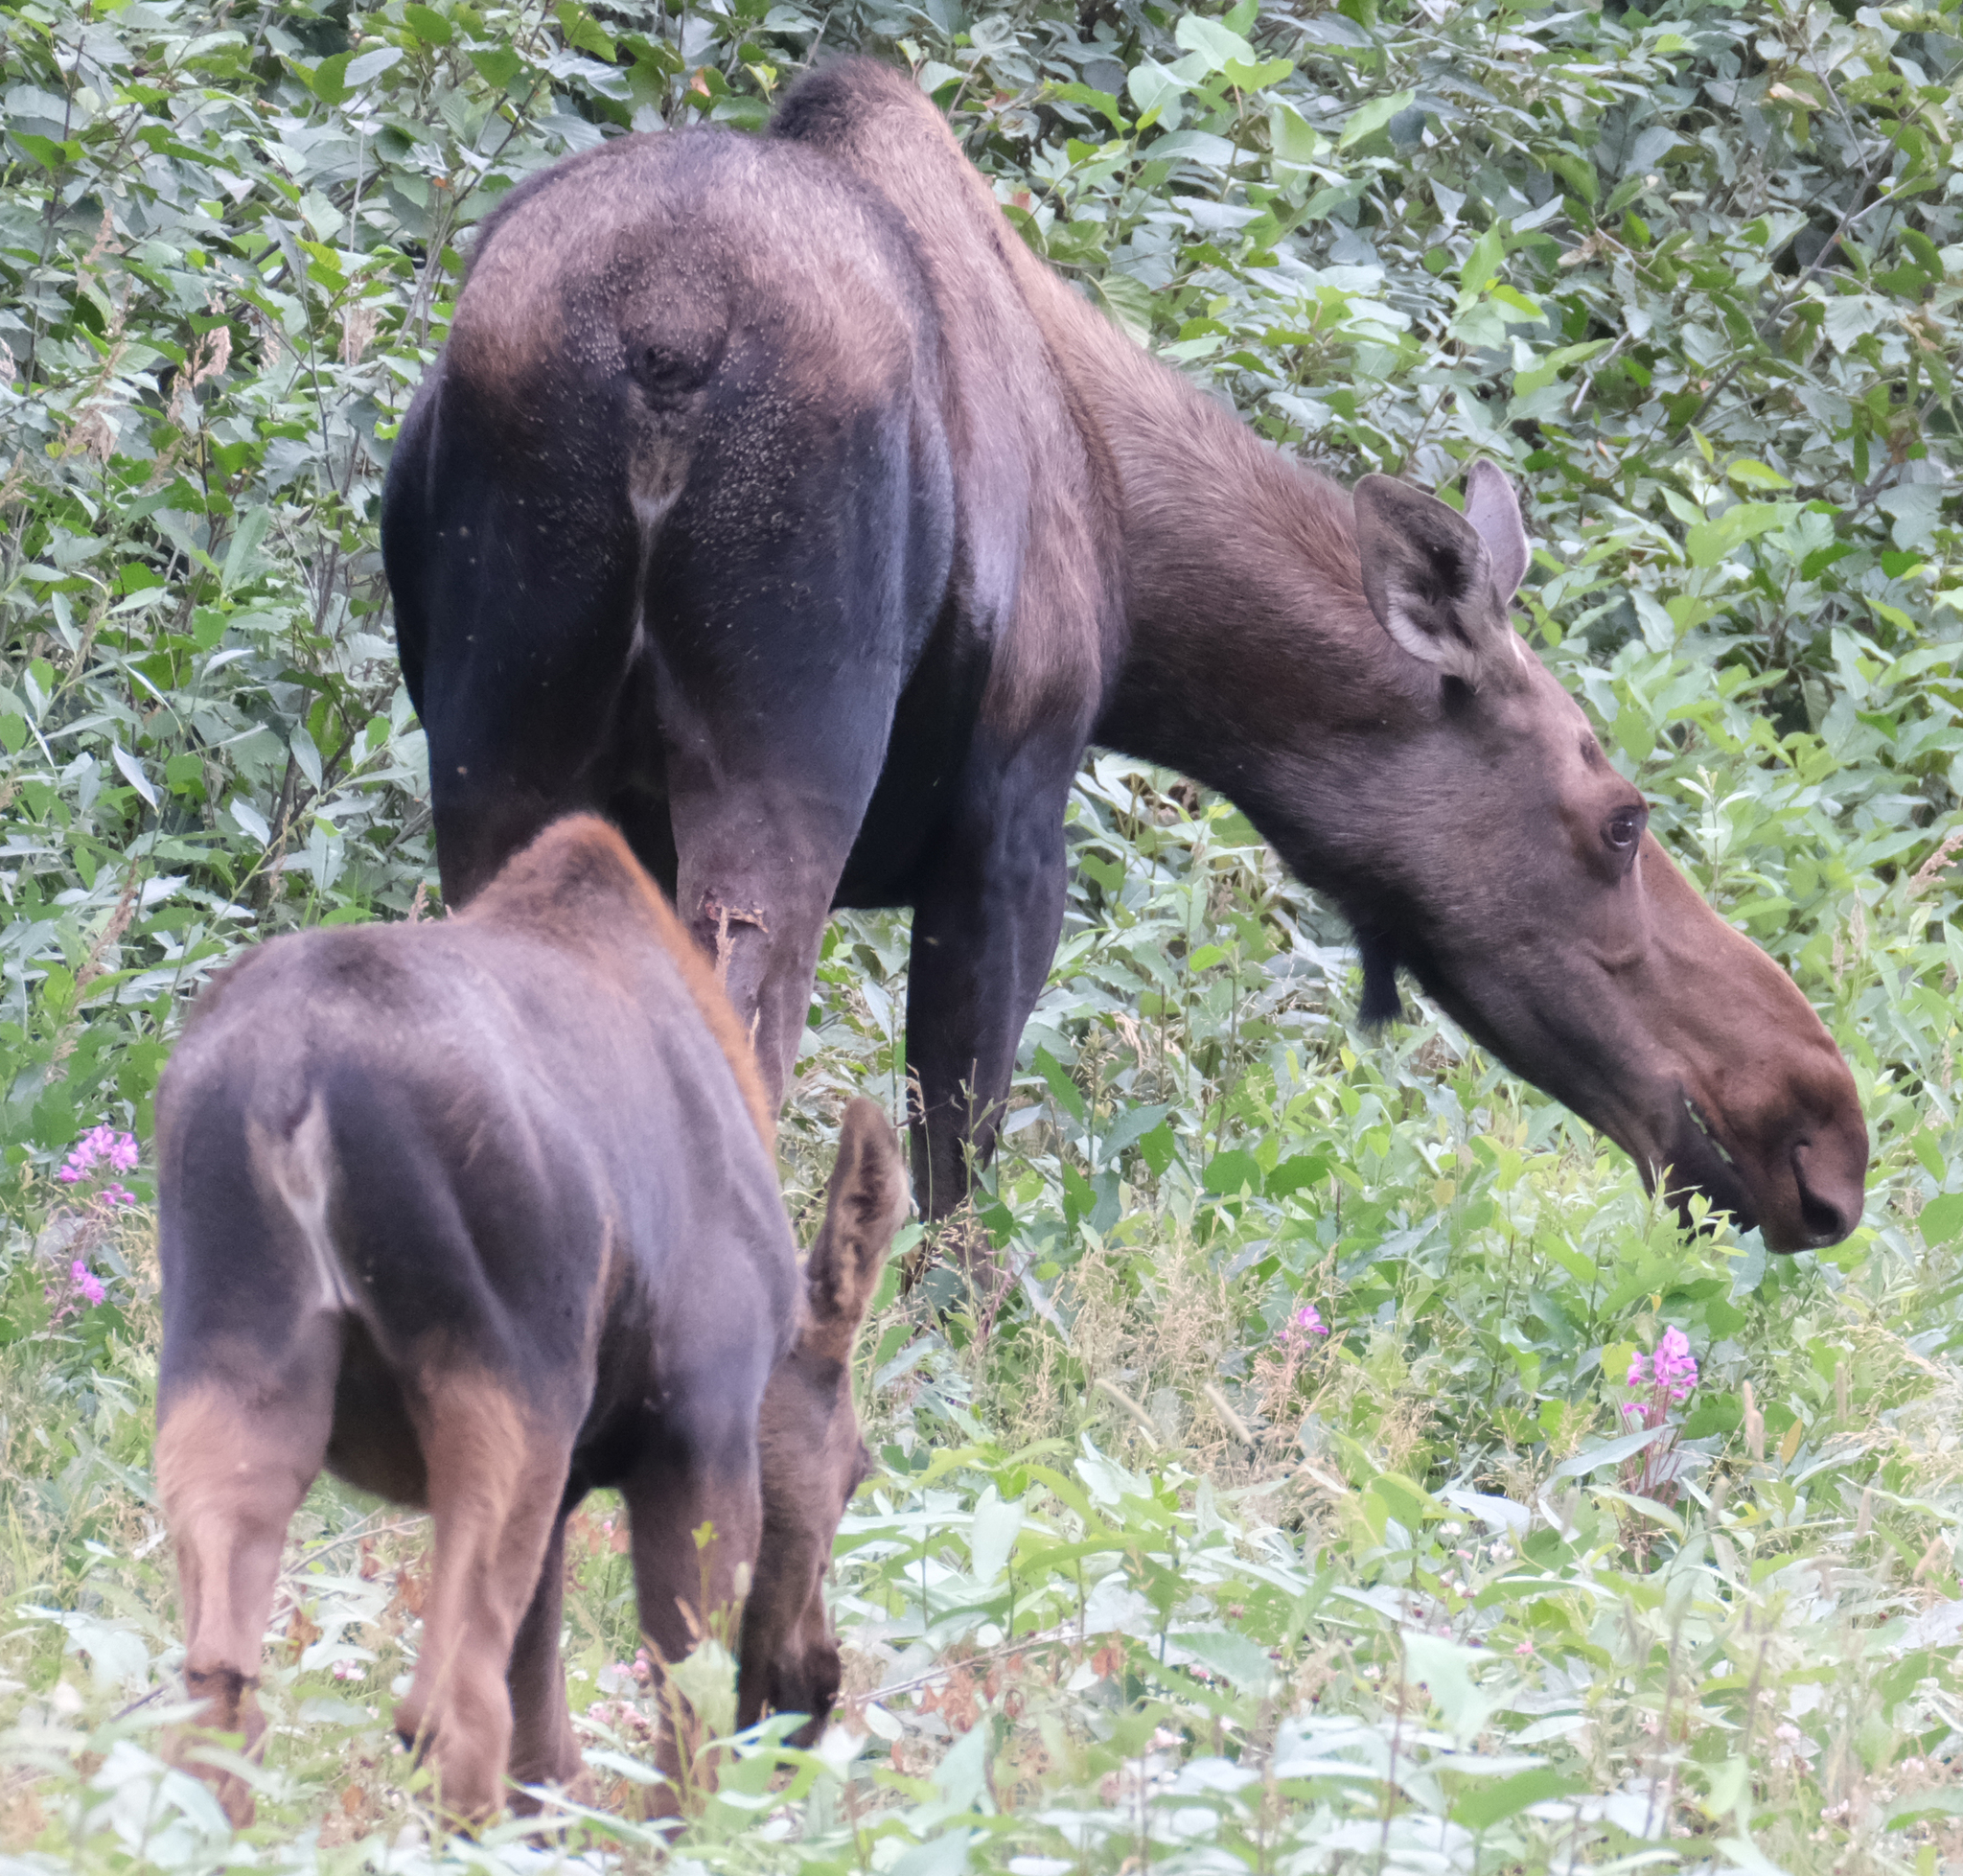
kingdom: Animalia
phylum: Chordata
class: Mammalia
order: Artiodactyla
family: Cervidae
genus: Alces
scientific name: Alces alces
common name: Moose
